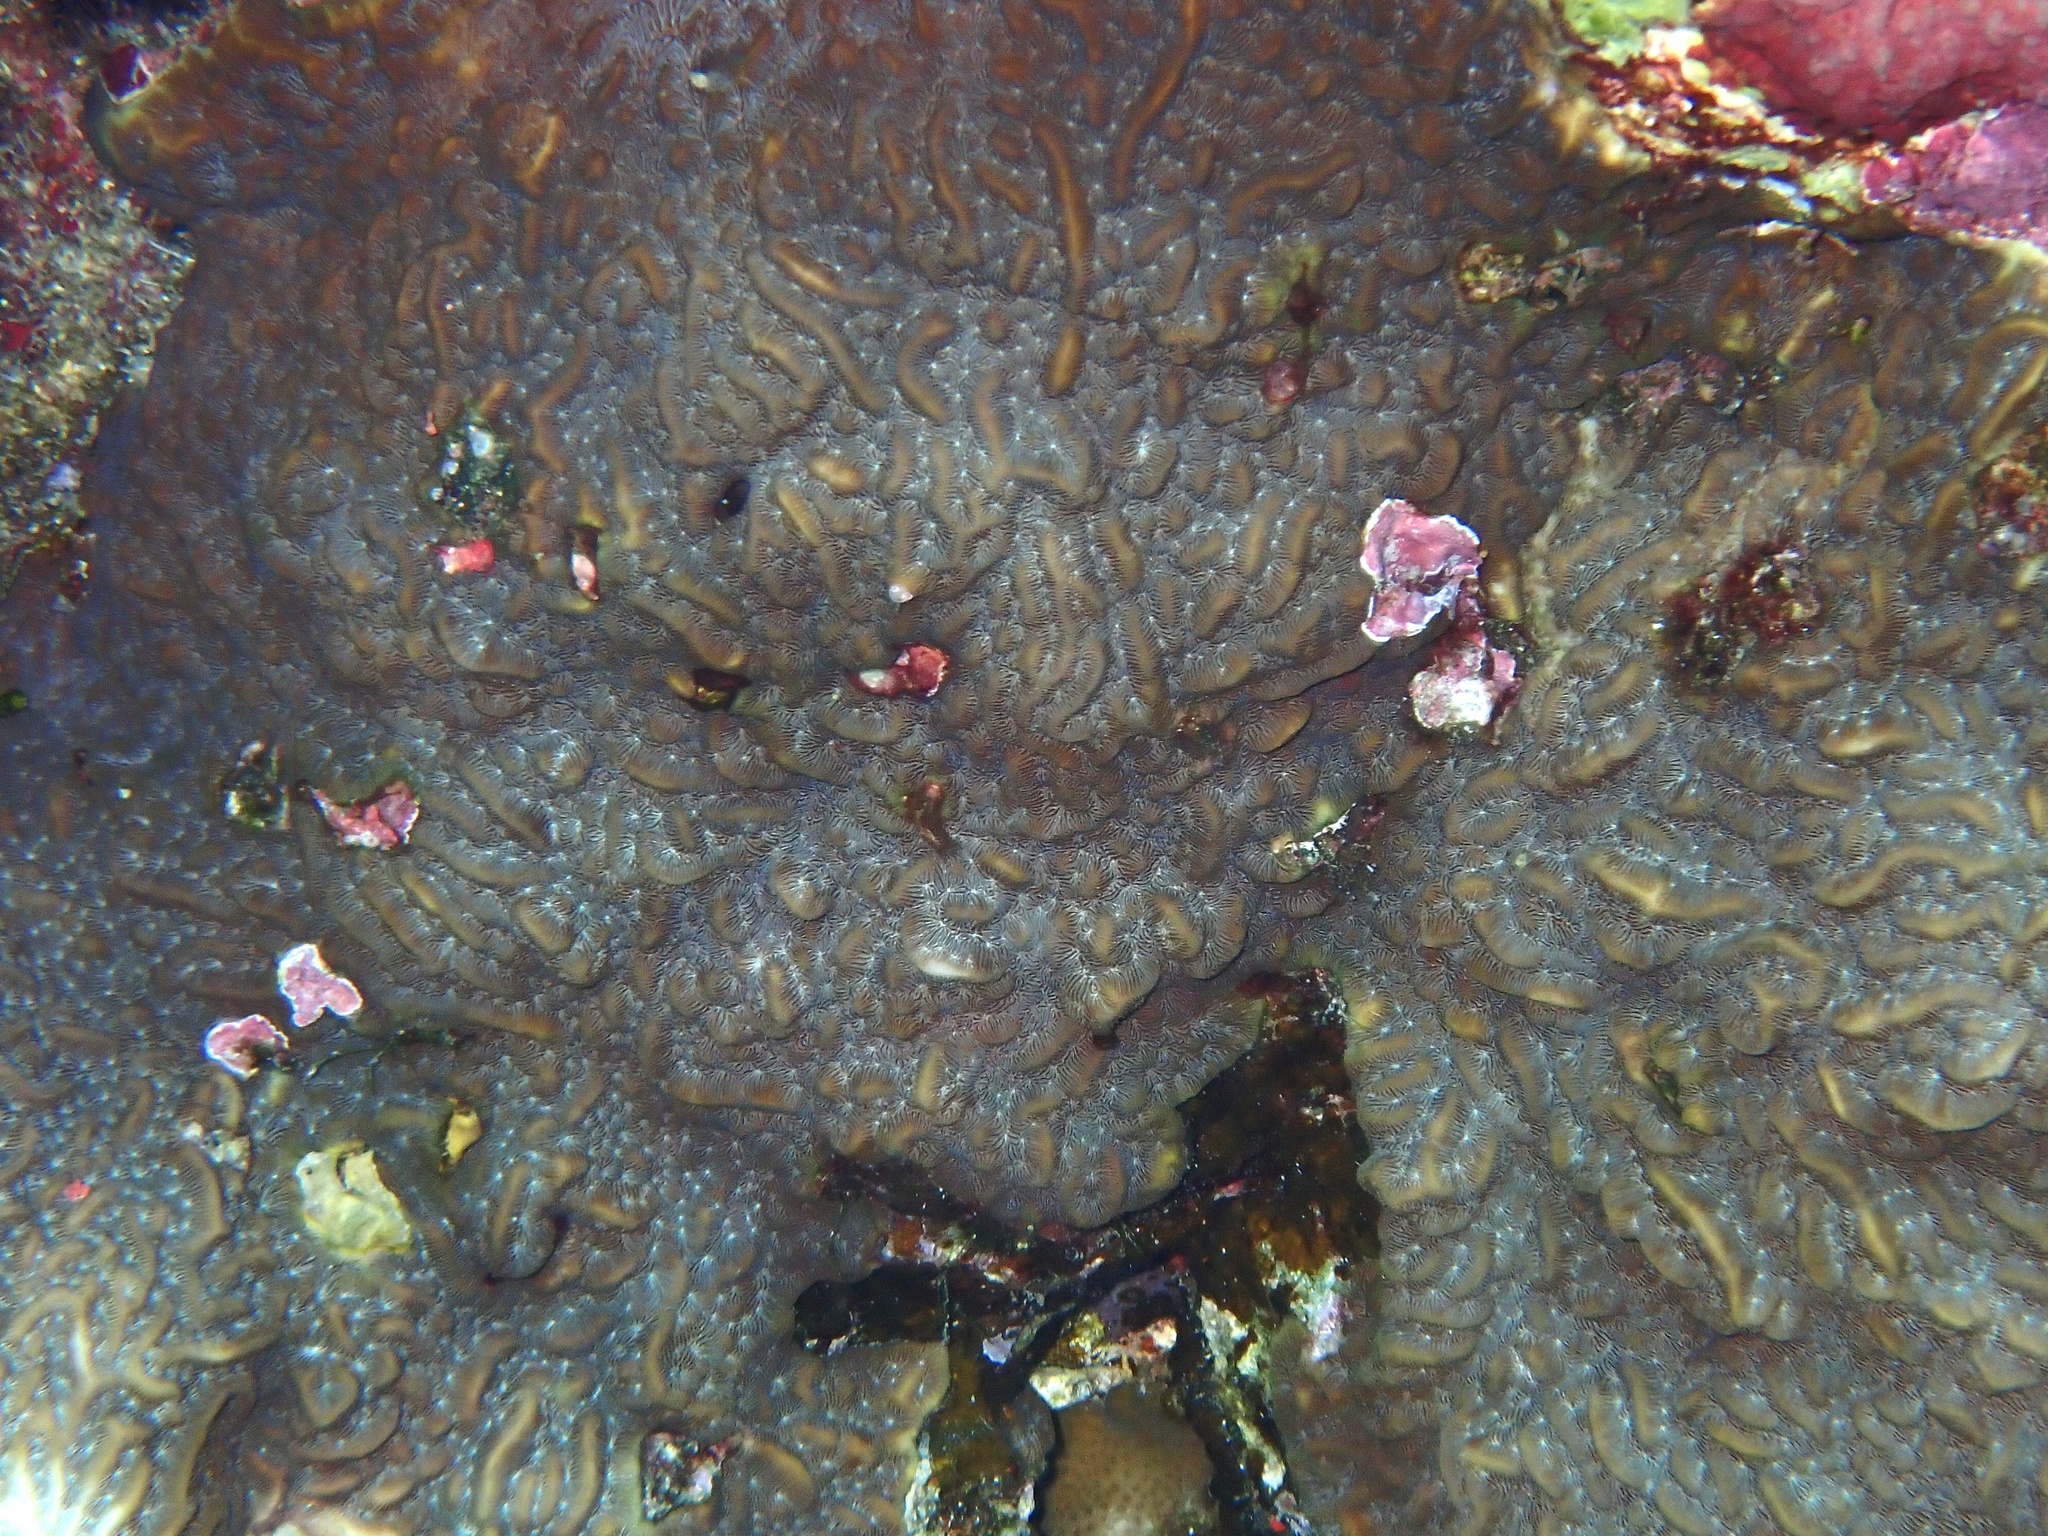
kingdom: Animalia
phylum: Cnidaria
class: Anthozoa
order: Scleractinia
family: Agariciidae
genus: Pavona
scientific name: Pavona varians
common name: Leaf coral
